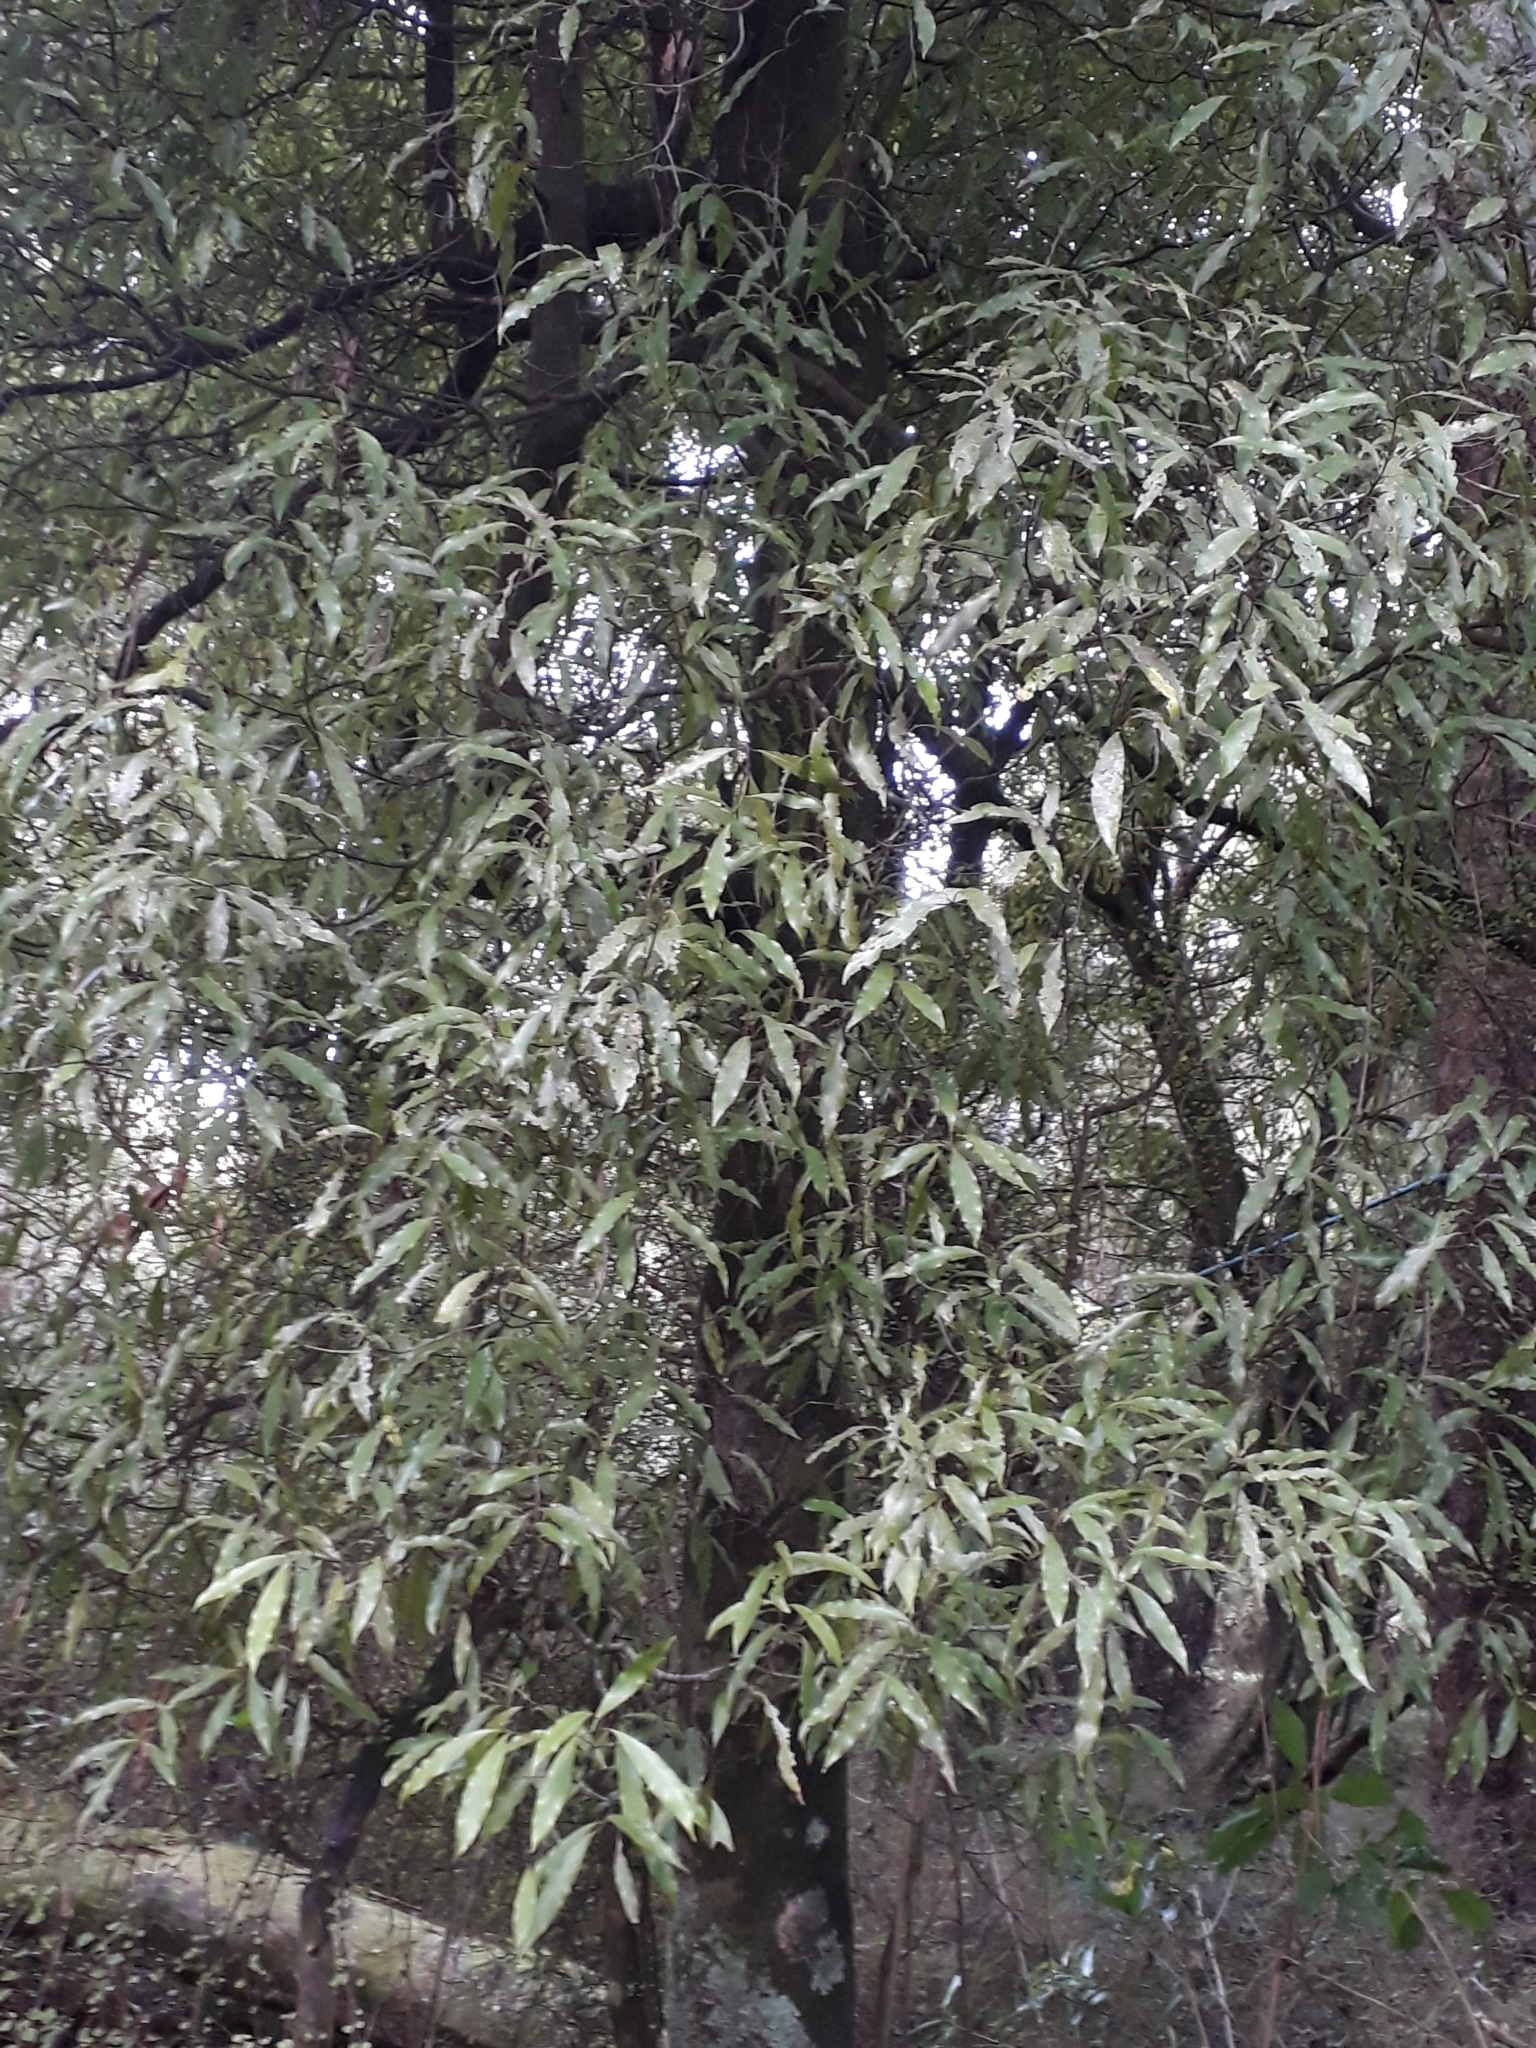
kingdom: Plantae
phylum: Tracheophyta
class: Magnoliopsida
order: Laurales
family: Lauraceae
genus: Beilschmiedia
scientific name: Beilschmiedia tawa
